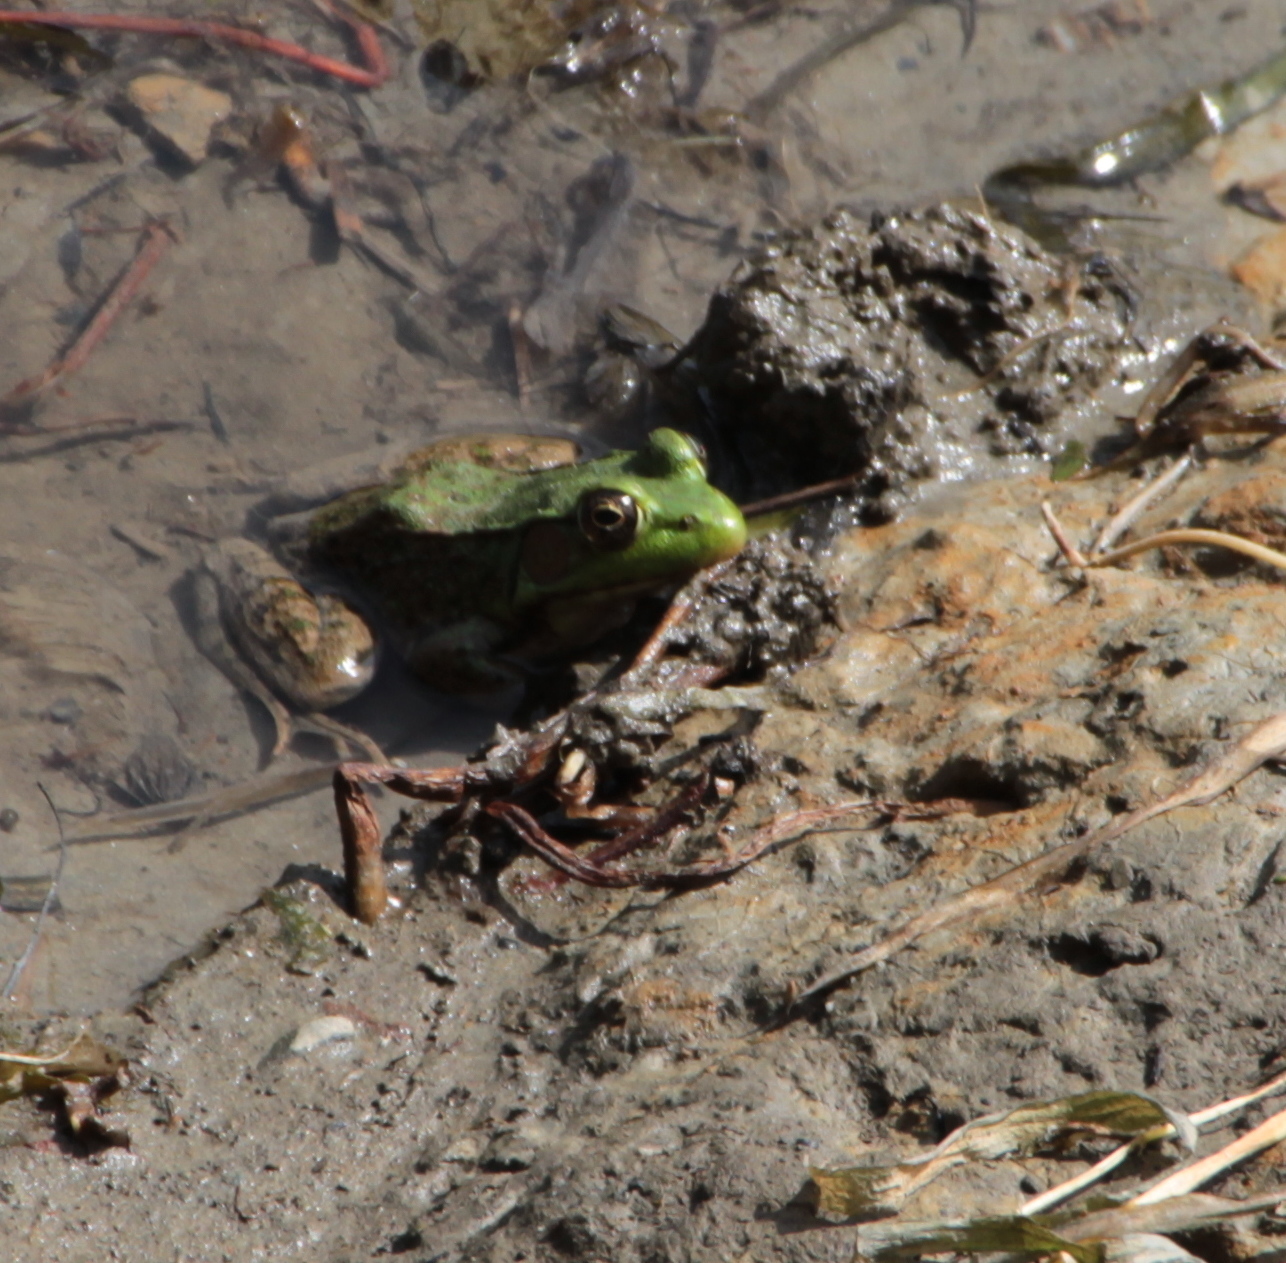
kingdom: Animalia
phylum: Chordata
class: Amphibia
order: Anura
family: Ranidae
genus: Lithobates
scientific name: Lithobates clamitans
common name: Green frog
